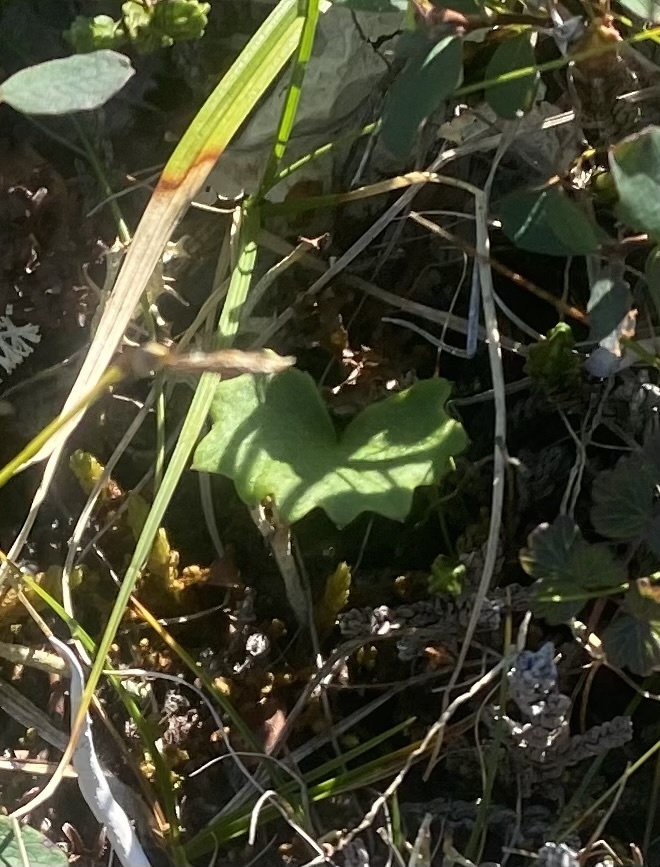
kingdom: Plantae
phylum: Tracheophyta
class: Magnoliopsida
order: Asterales
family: Asteraceae
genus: Endocellion
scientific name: Endocellion glaciale
